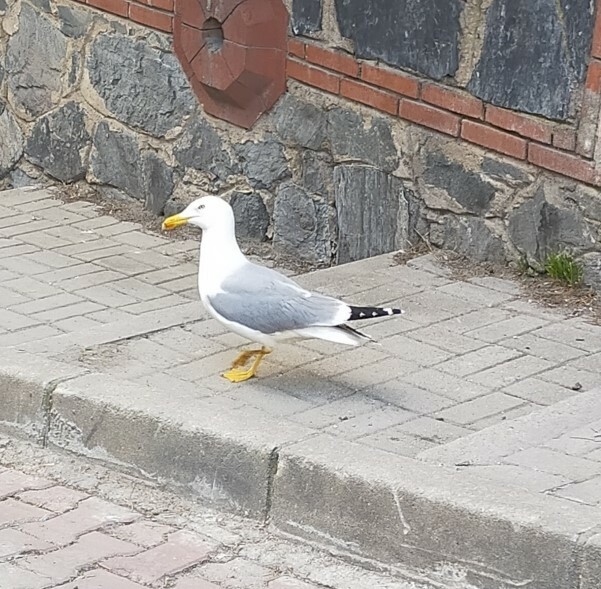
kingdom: Animalia
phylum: Chordata
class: Aves
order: Charadriiformes
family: Laridae
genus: Larus
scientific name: Larus michahellis
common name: Yellow-legged gull
